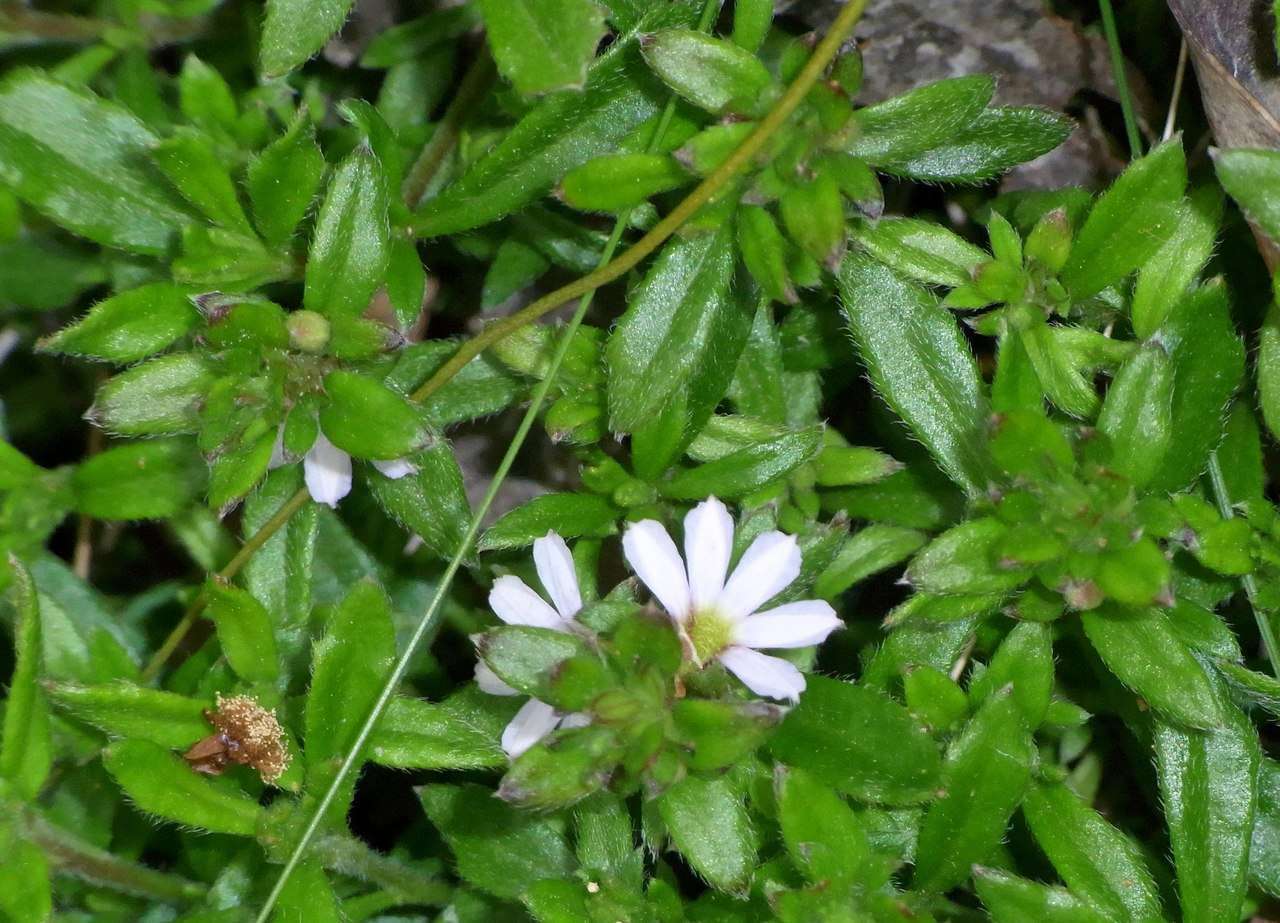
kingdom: Plantae
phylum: Tracheophyta
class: Magnoliopsida
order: Asterales
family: Goodeniaceae
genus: Scaevola
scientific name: Scaevola albida
